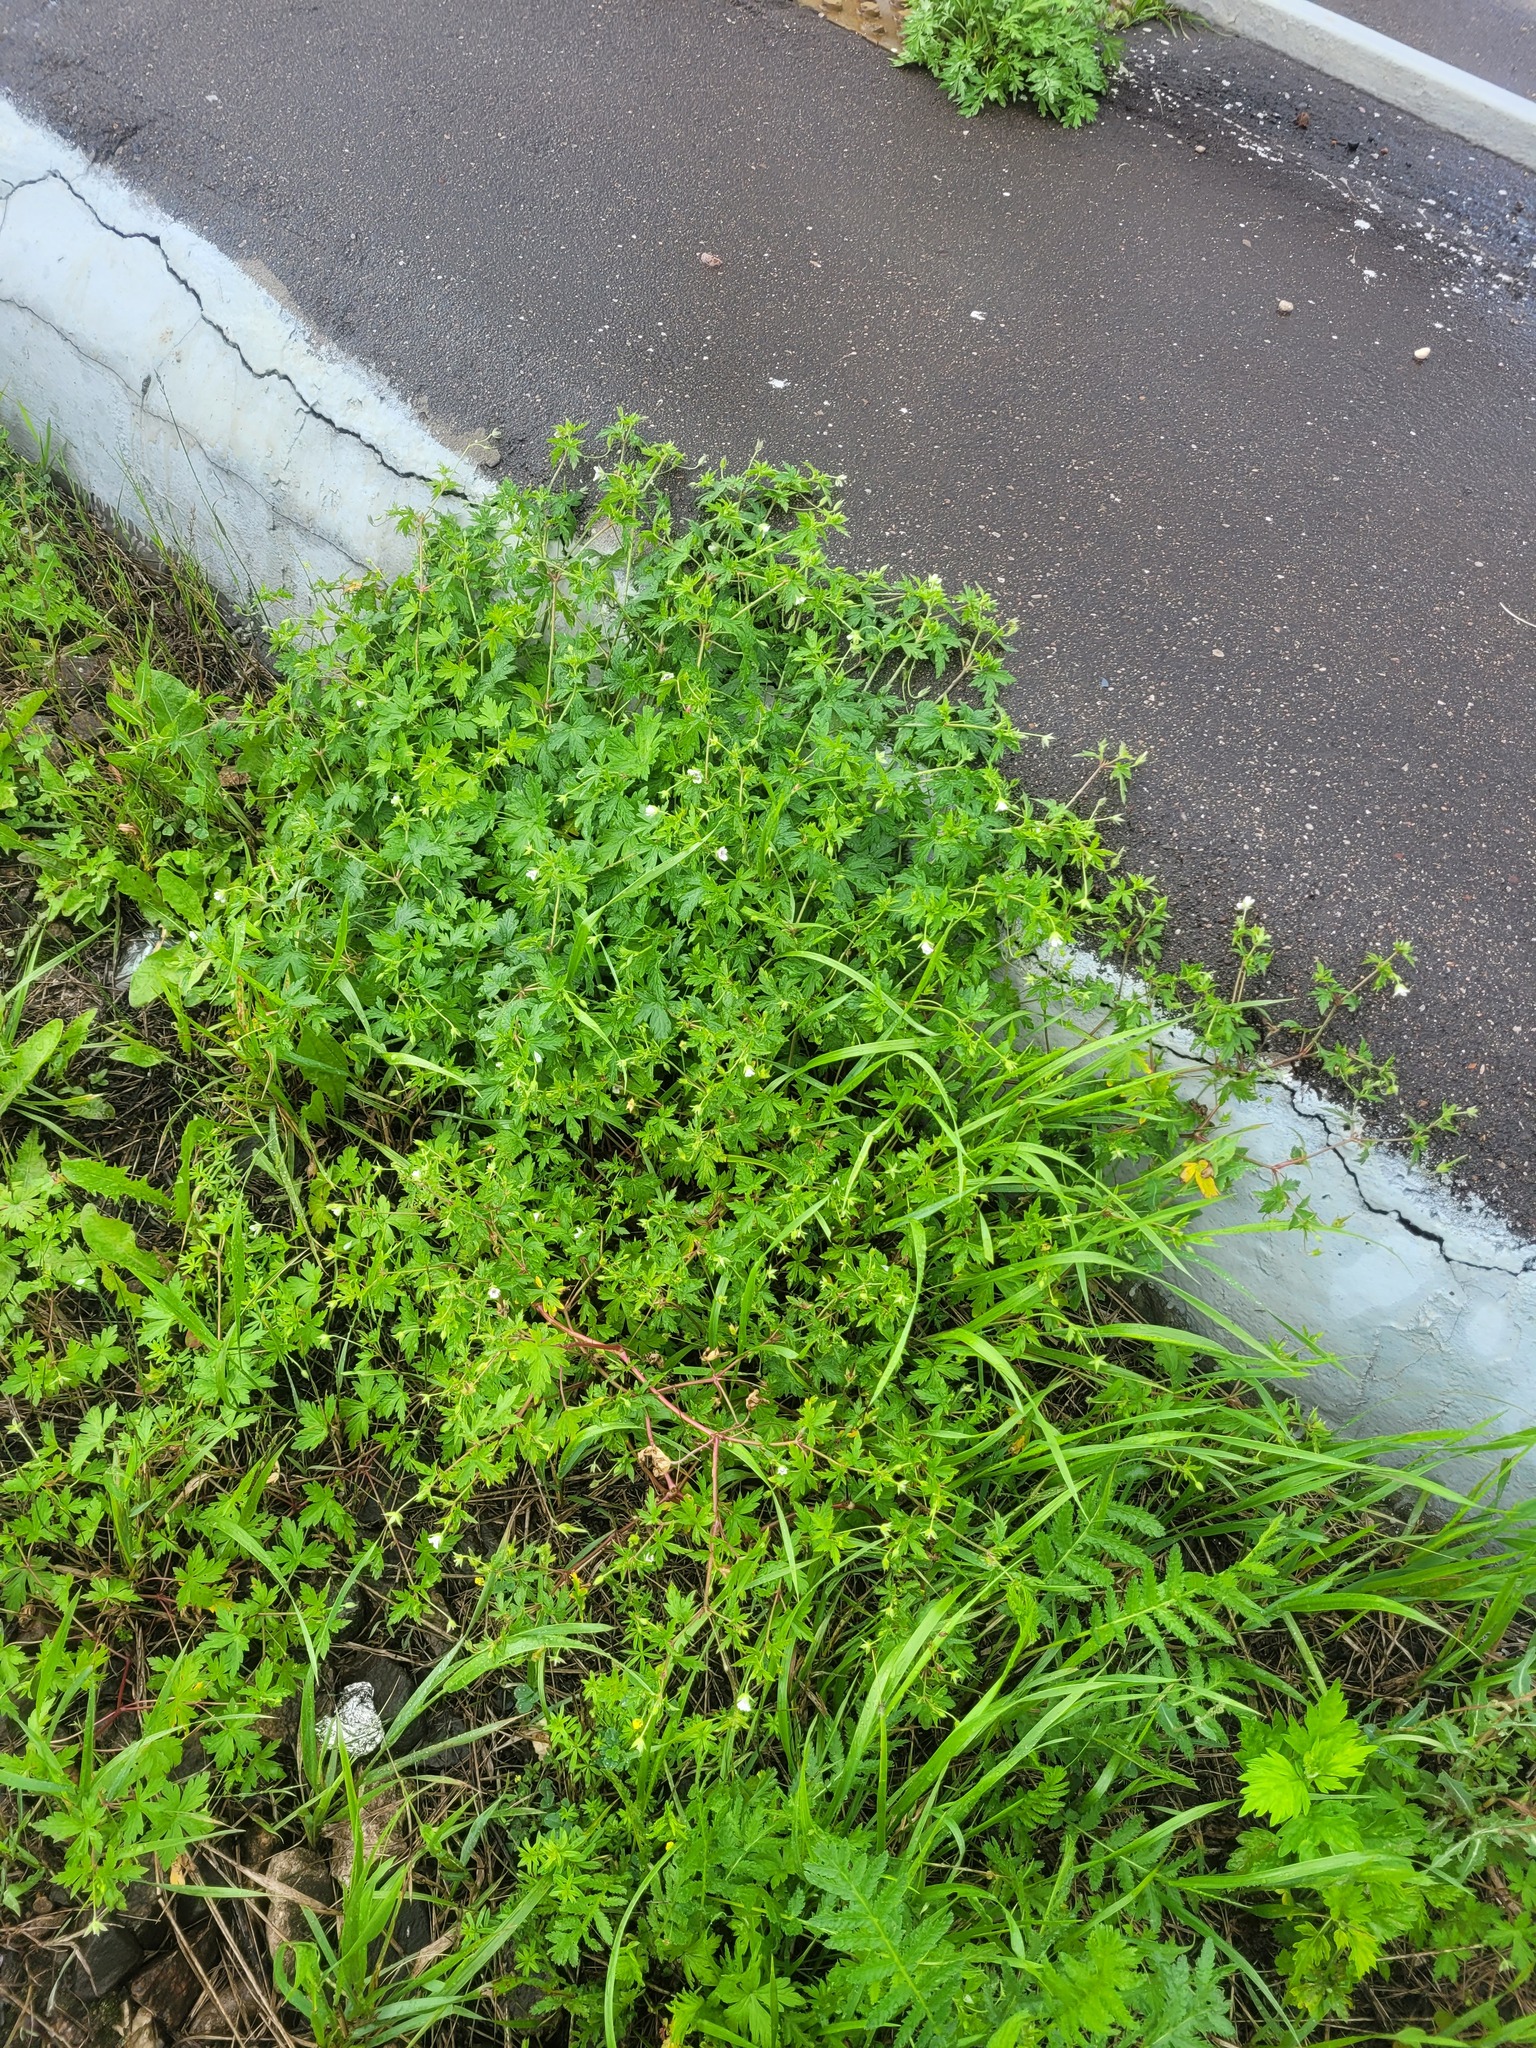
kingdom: Plantae
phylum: Tracheophyta
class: Magnoliopsida
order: Geraniales
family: Geraniaceae
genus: Geranium
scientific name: Geranium sibiricum
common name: Siberian crane's-bill
